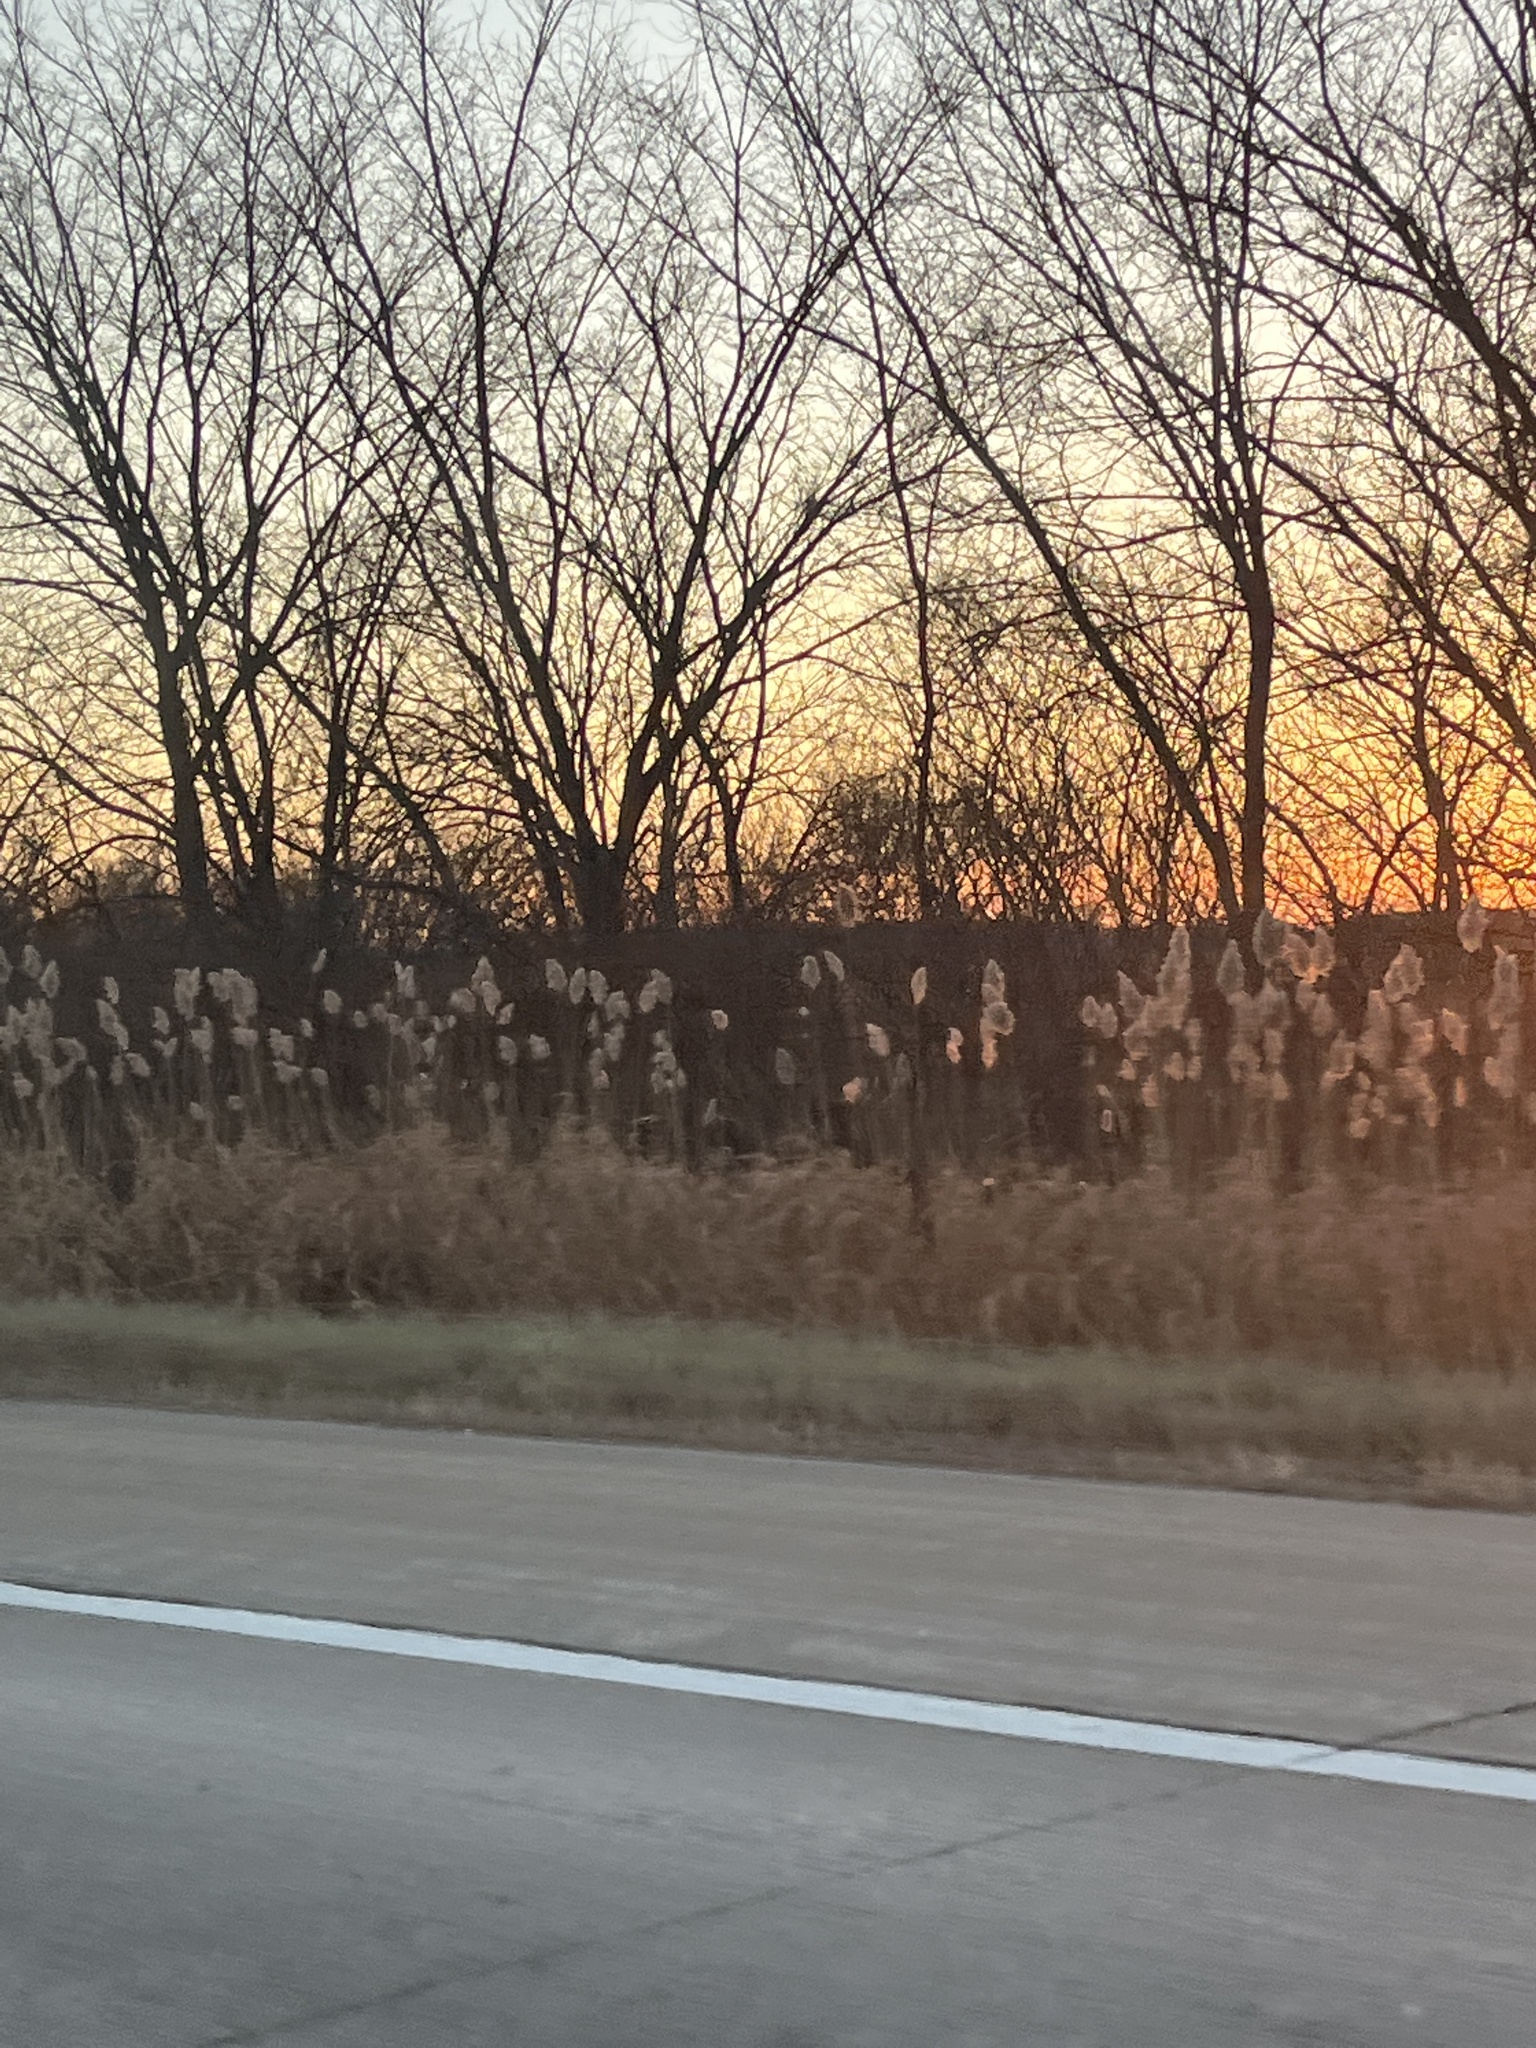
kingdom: Plantae
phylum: Tracheophyta
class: Liliopsida
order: Poales
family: Poaceae
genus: Phragmites
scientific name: Phragmites australis
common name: Common reed
